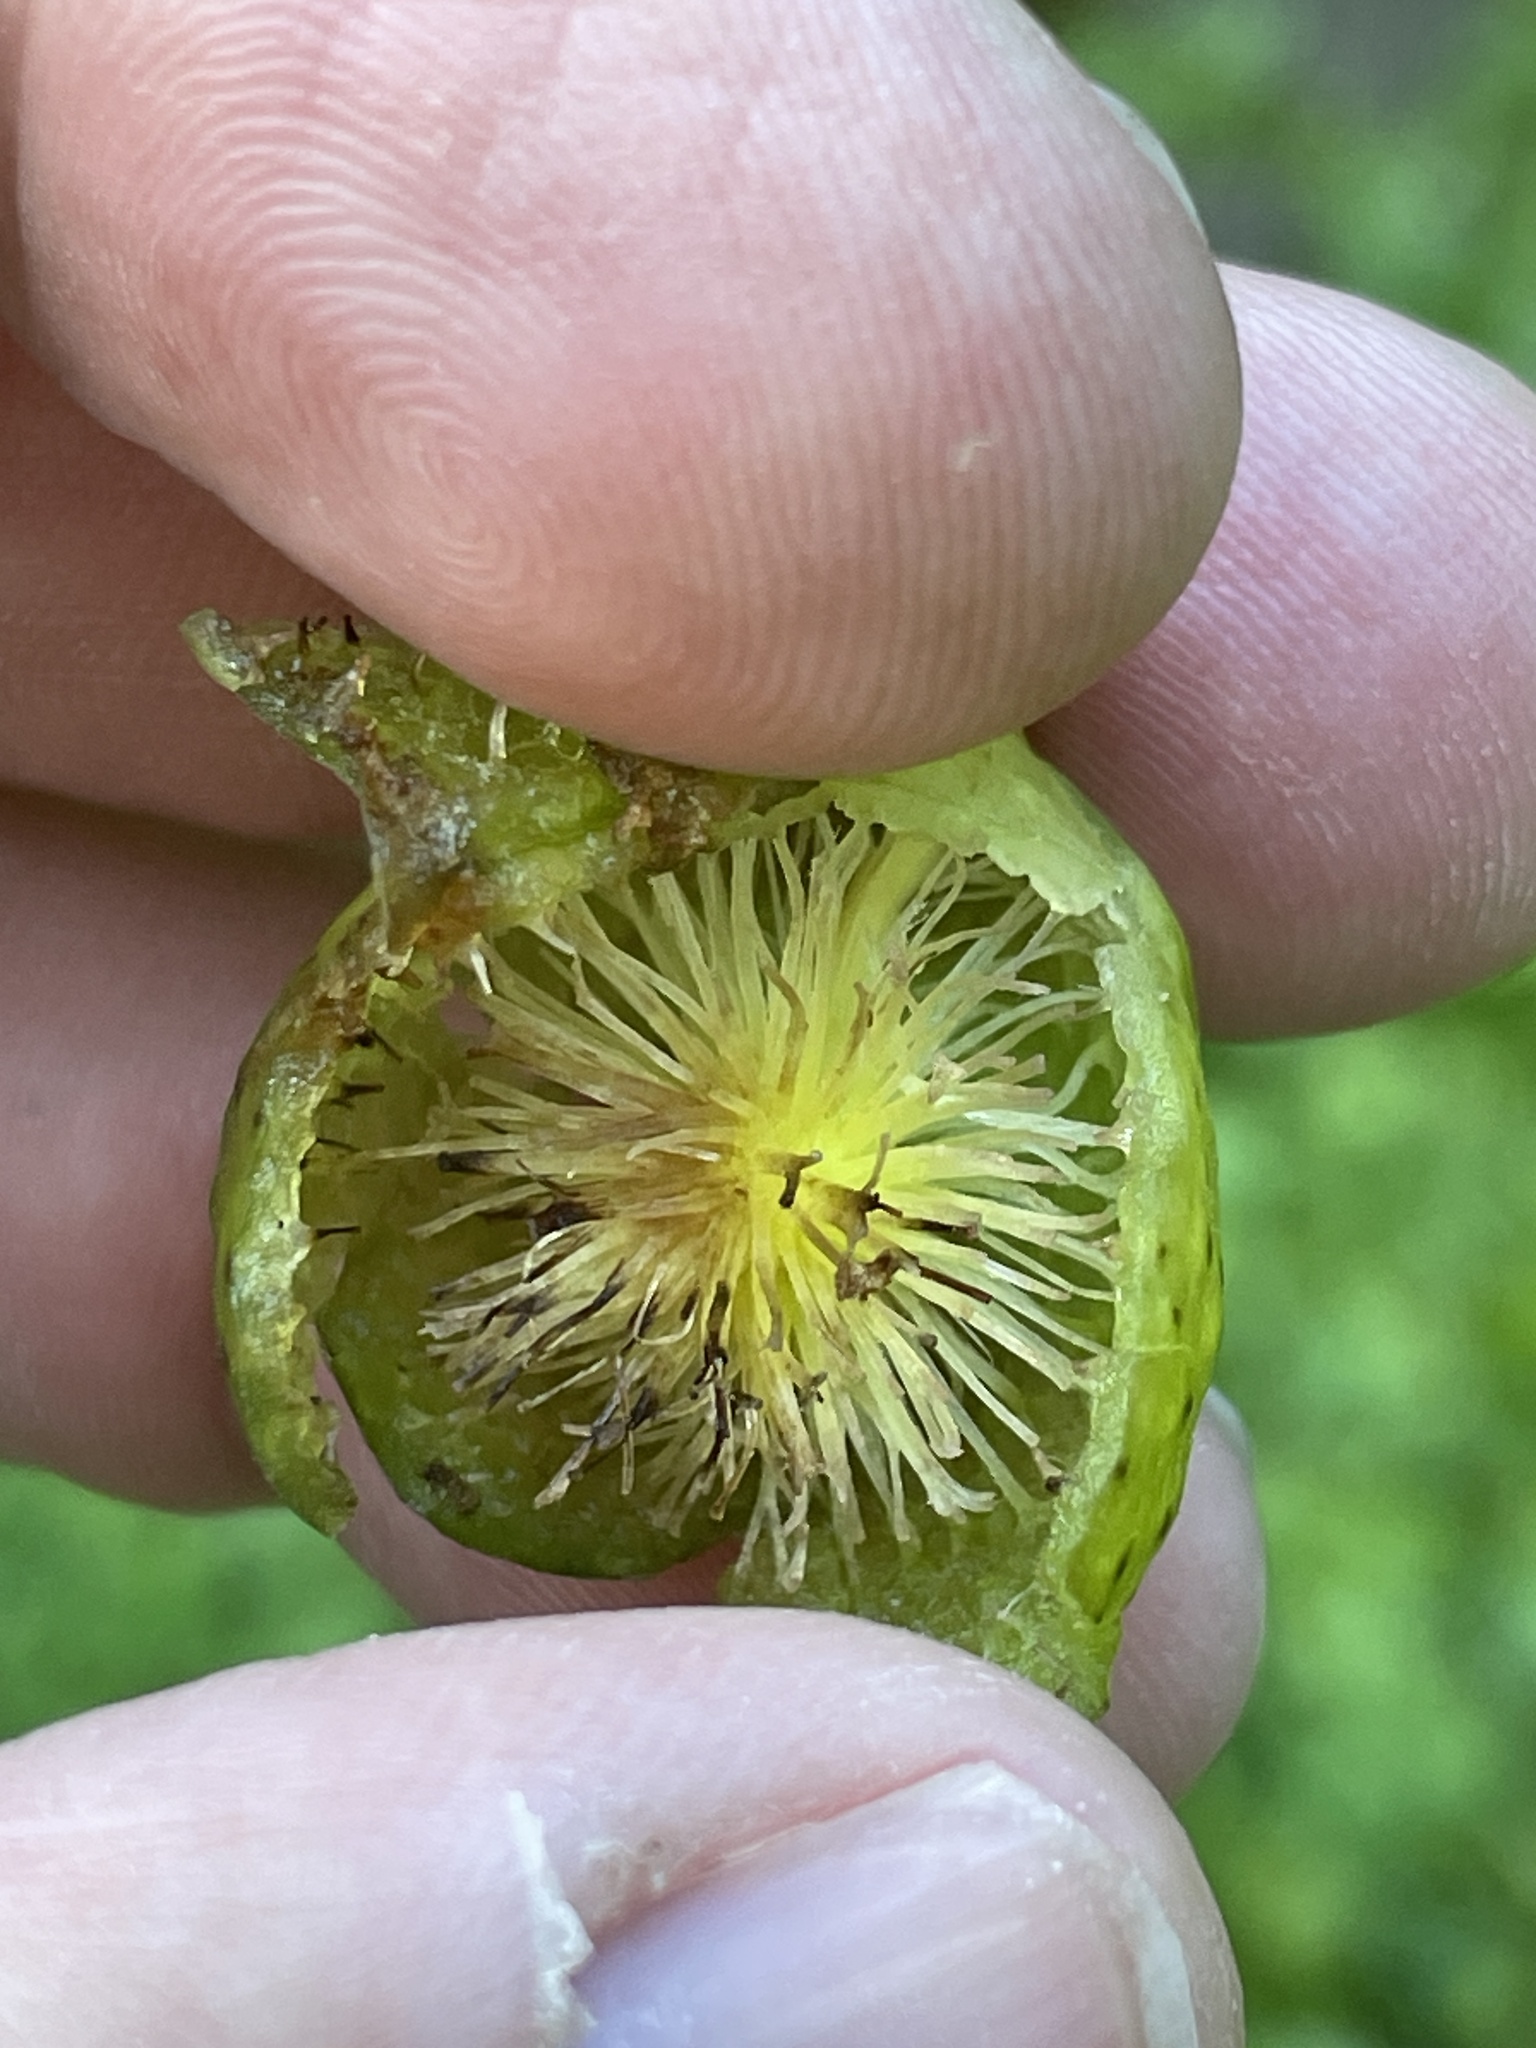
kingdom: Animalia
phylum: Arthropoda
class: Insecta
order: Hymenoptera
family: Cynipidae
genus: Amphibolips
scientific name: Amphibolips
